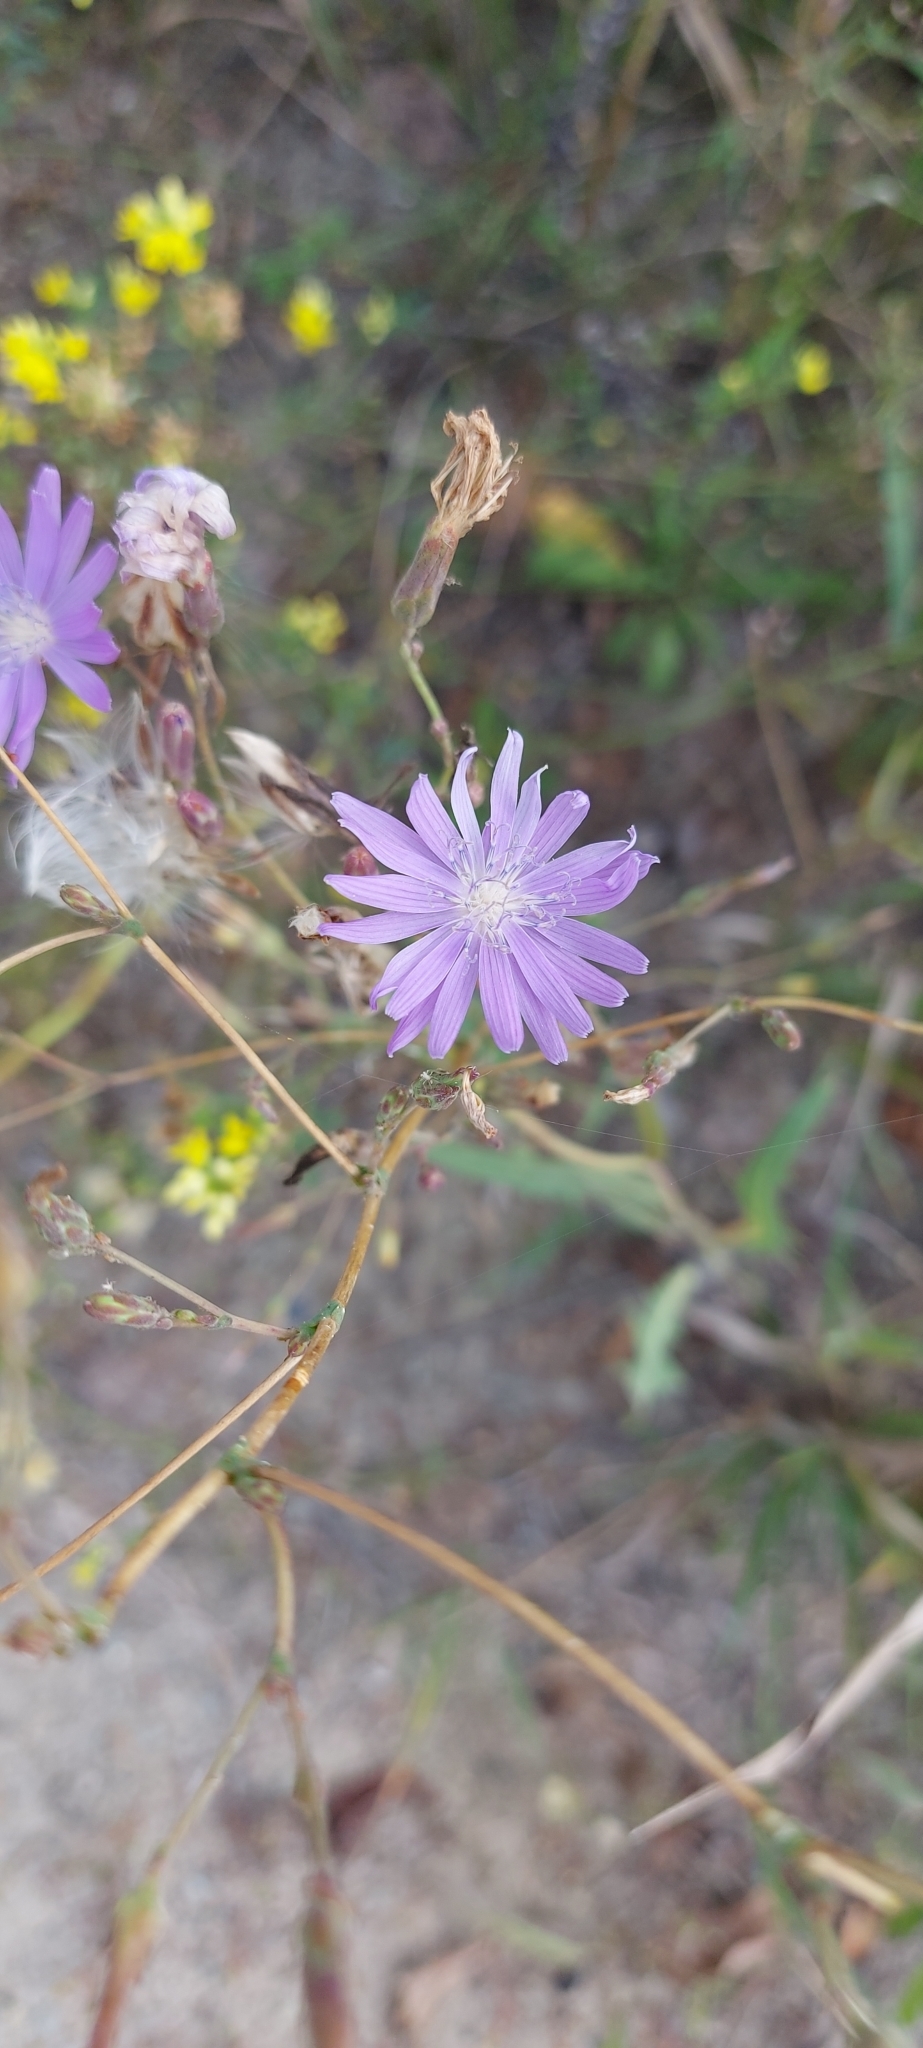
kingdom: Plantae
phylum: Tracheophyta
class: Magnoliopsida
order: Asterales
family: Asteraceae
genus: Lactuca
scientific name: Lactuca tatarica
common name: Blue lettuce
